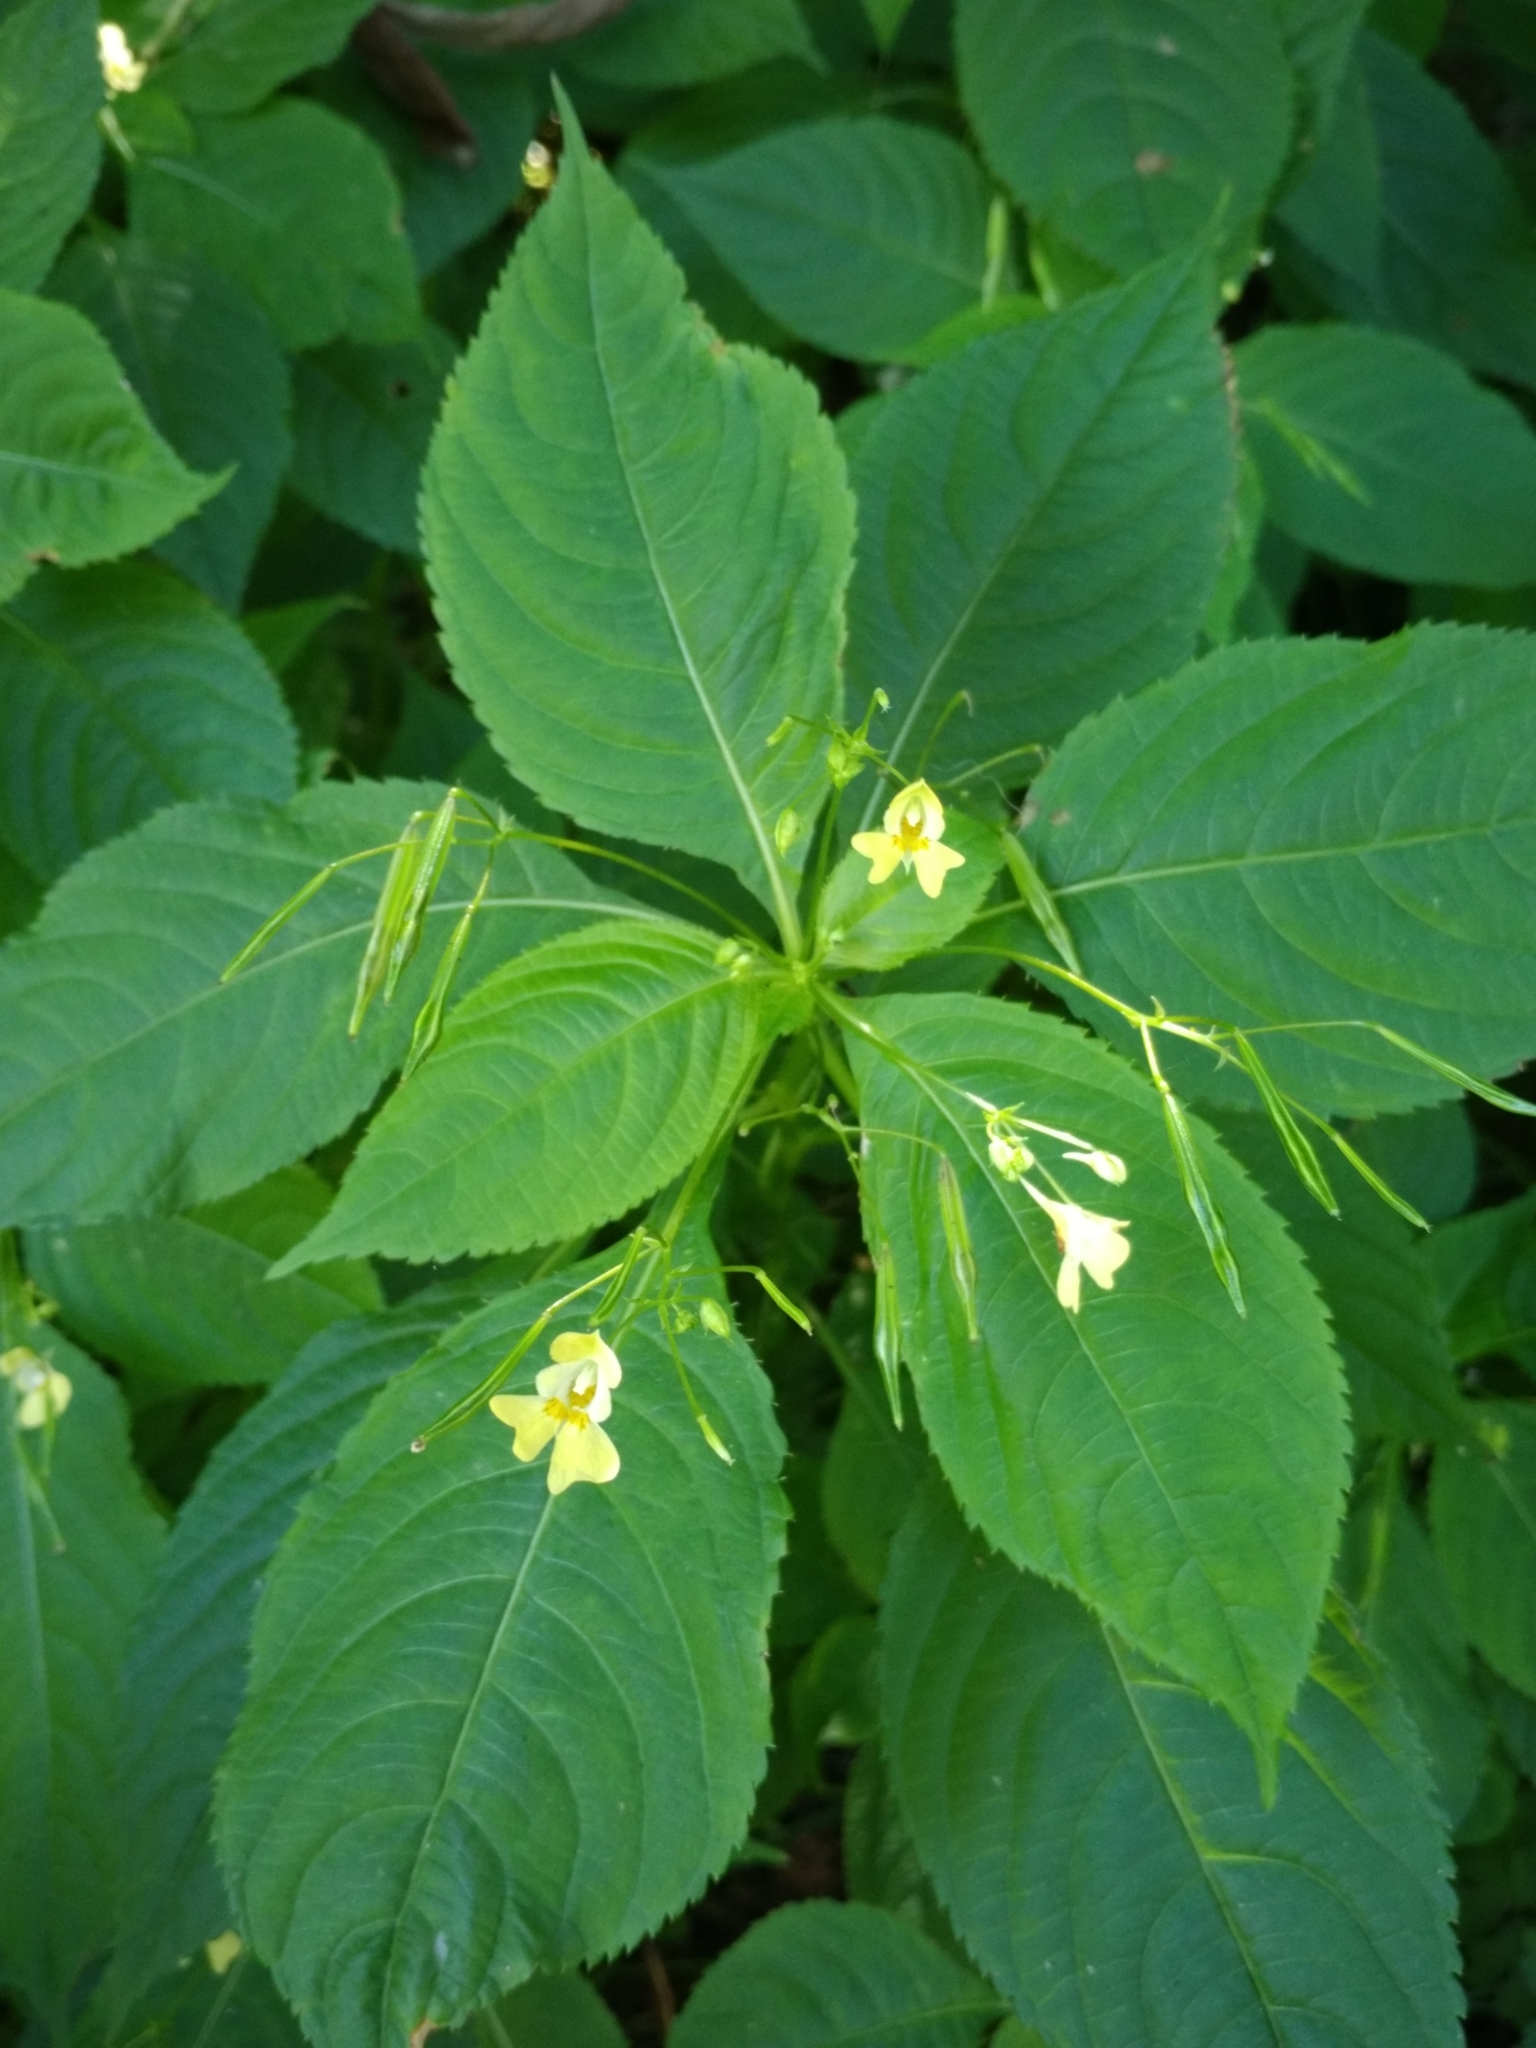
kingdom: Plantae
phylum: Tracheophyta
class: Magnoliopsida
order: Ericales
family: Balsaminaceae
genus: Impatiens
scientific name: Impatiens parviflora
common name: Small balsam
